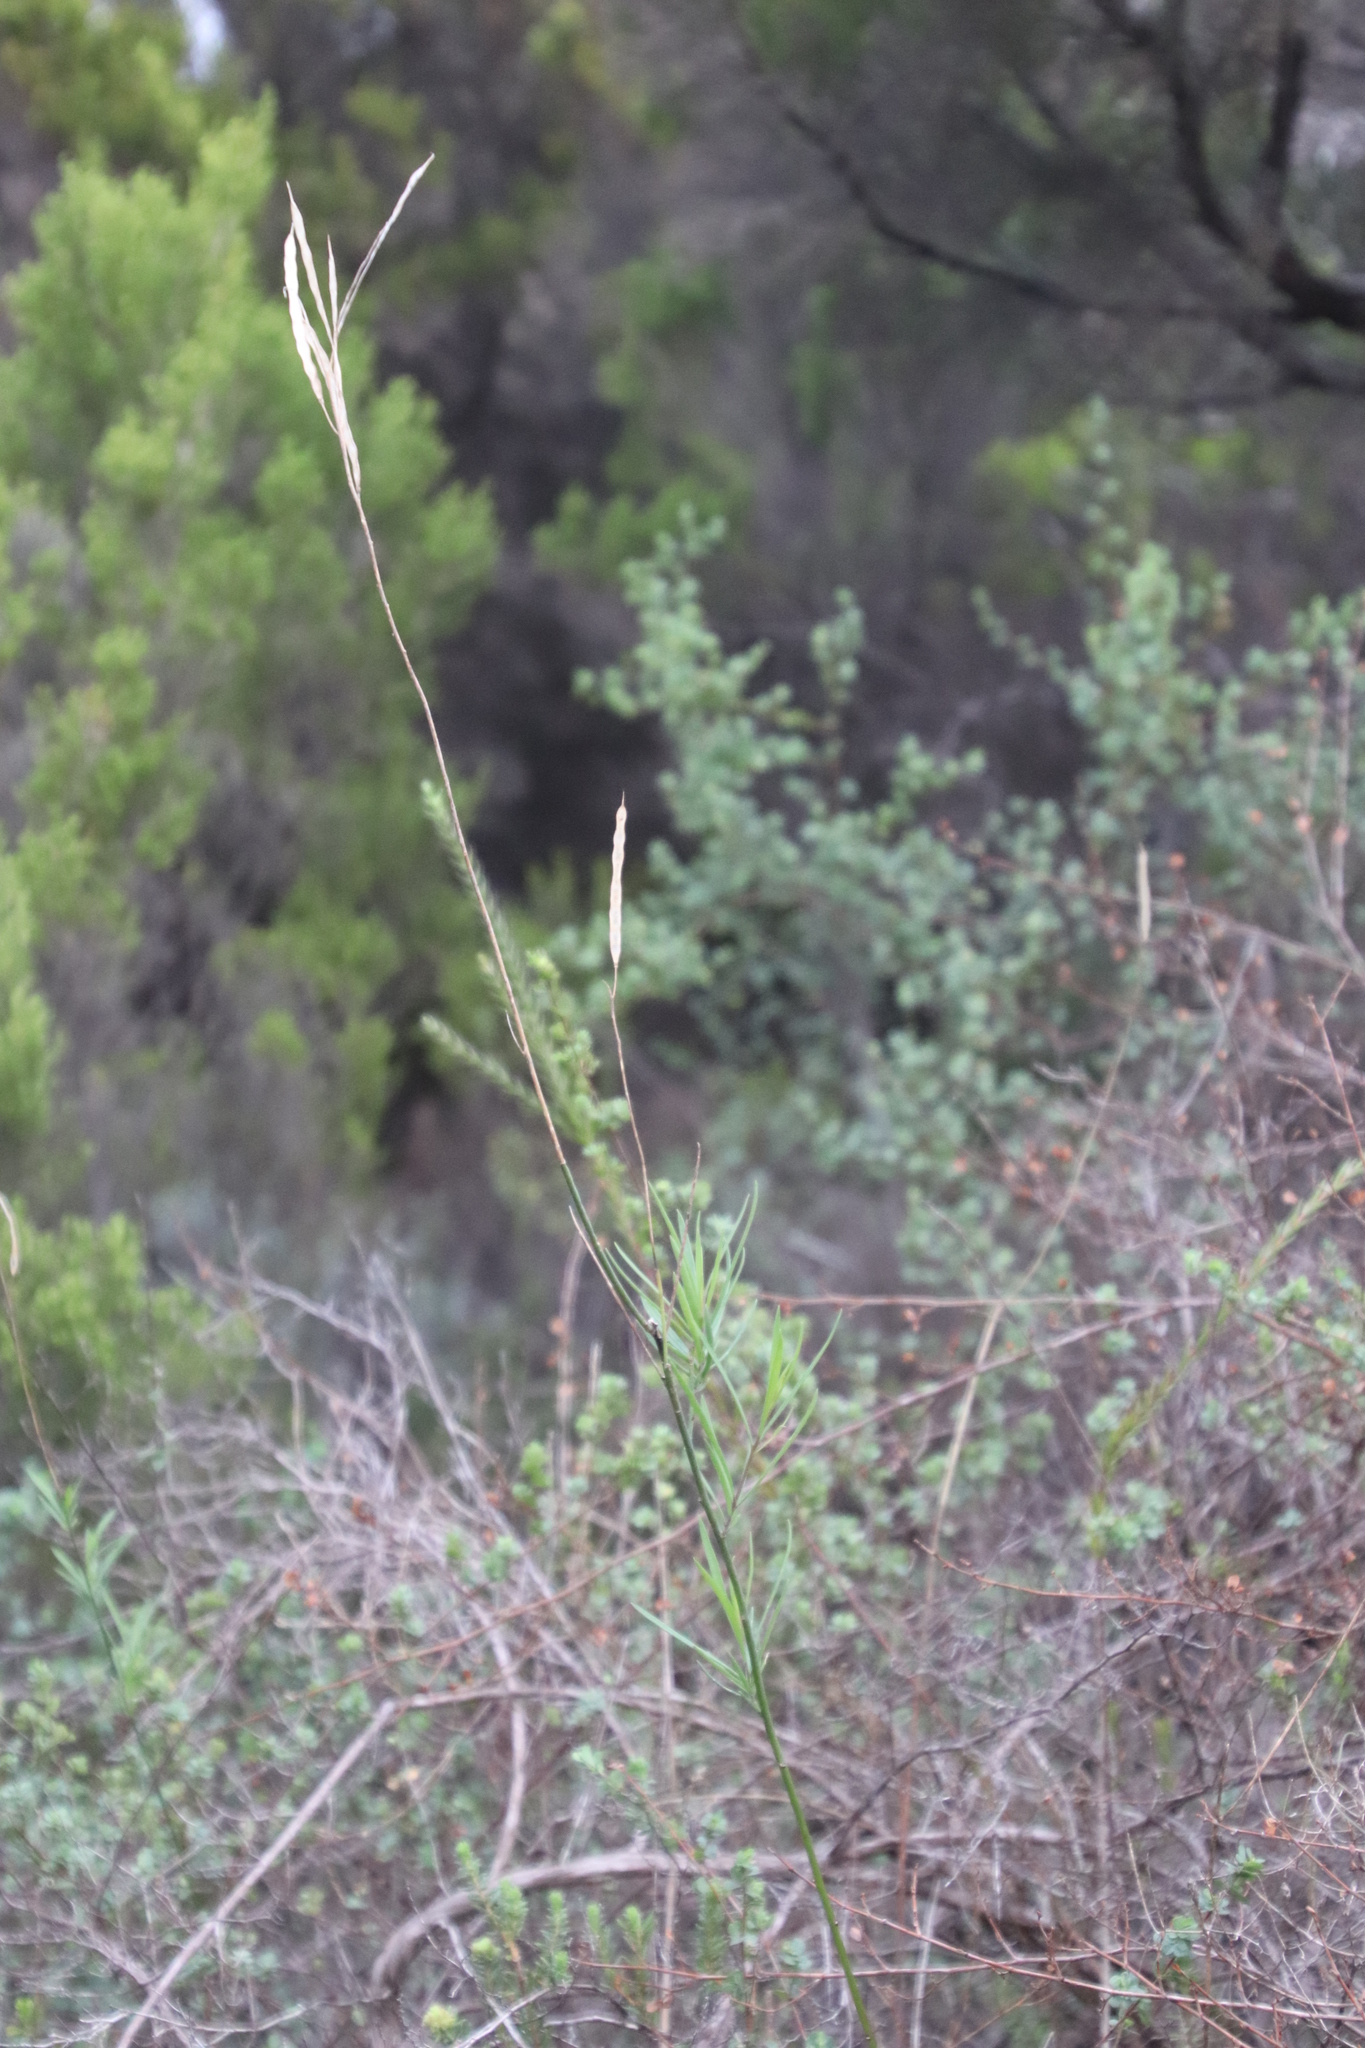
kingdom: Plantae
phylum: Tracheophyta
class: Magnoliopsida
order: Brassicales
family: Brassicaceae
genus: Heliophila
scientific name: Heliophila linearis
